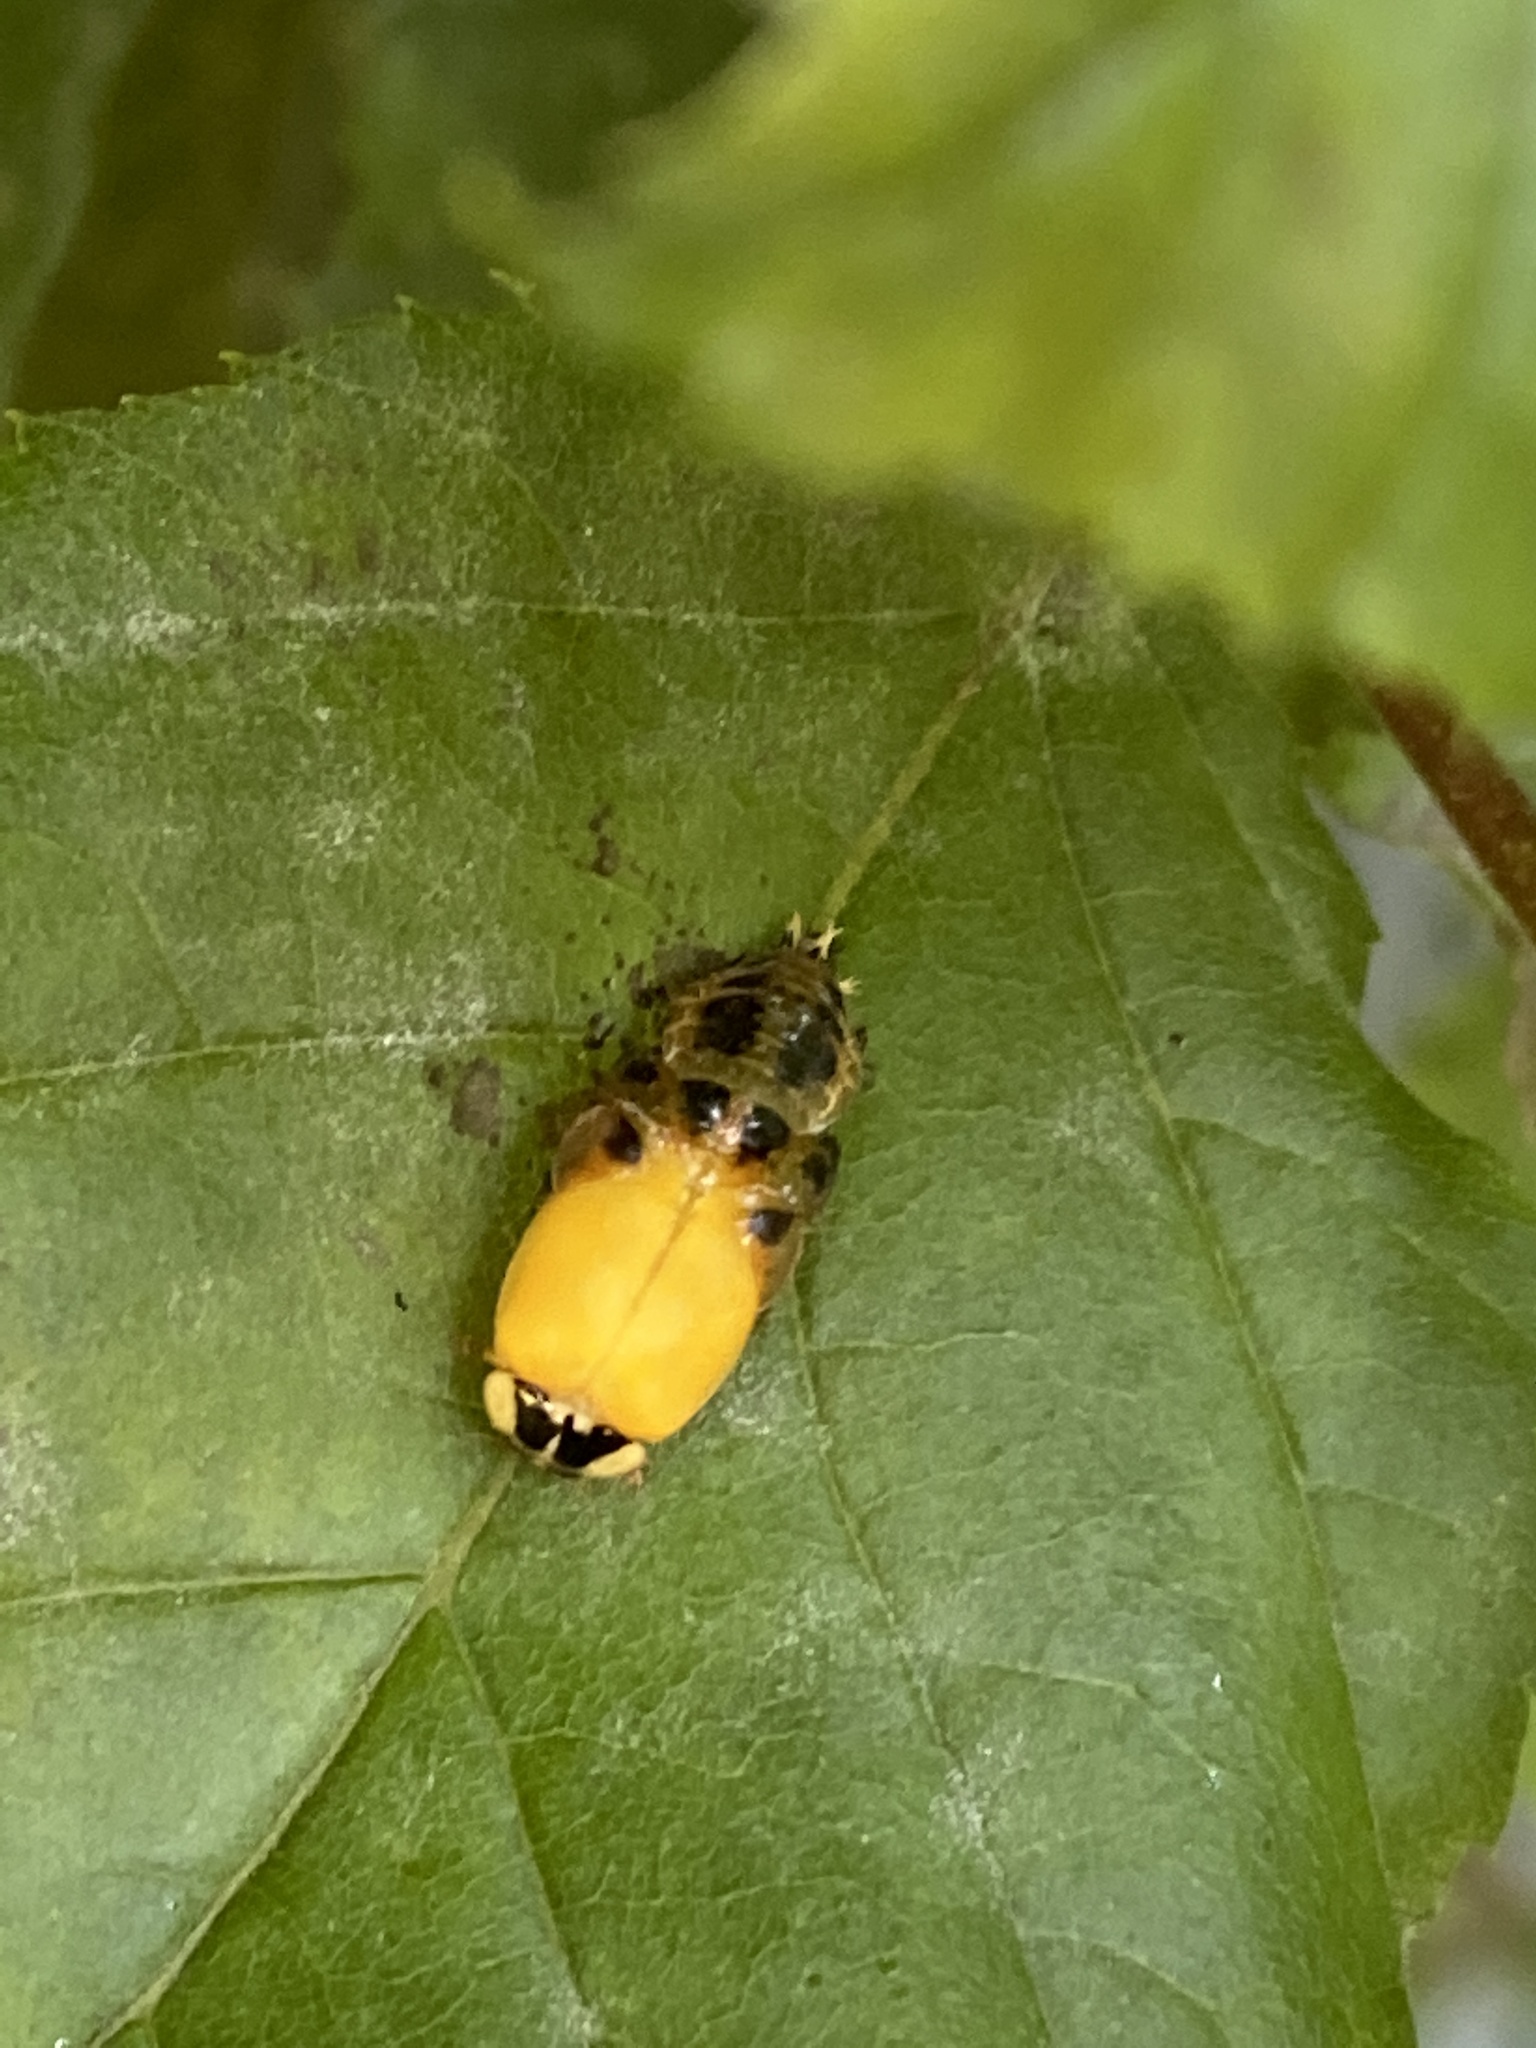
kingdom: Animalia
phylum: Arthropoda
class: Insecta
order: Coleoptera
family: Coccinellidae
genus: Harmonia
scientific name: Harmonia axyridis
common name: Harlequin ladybird
